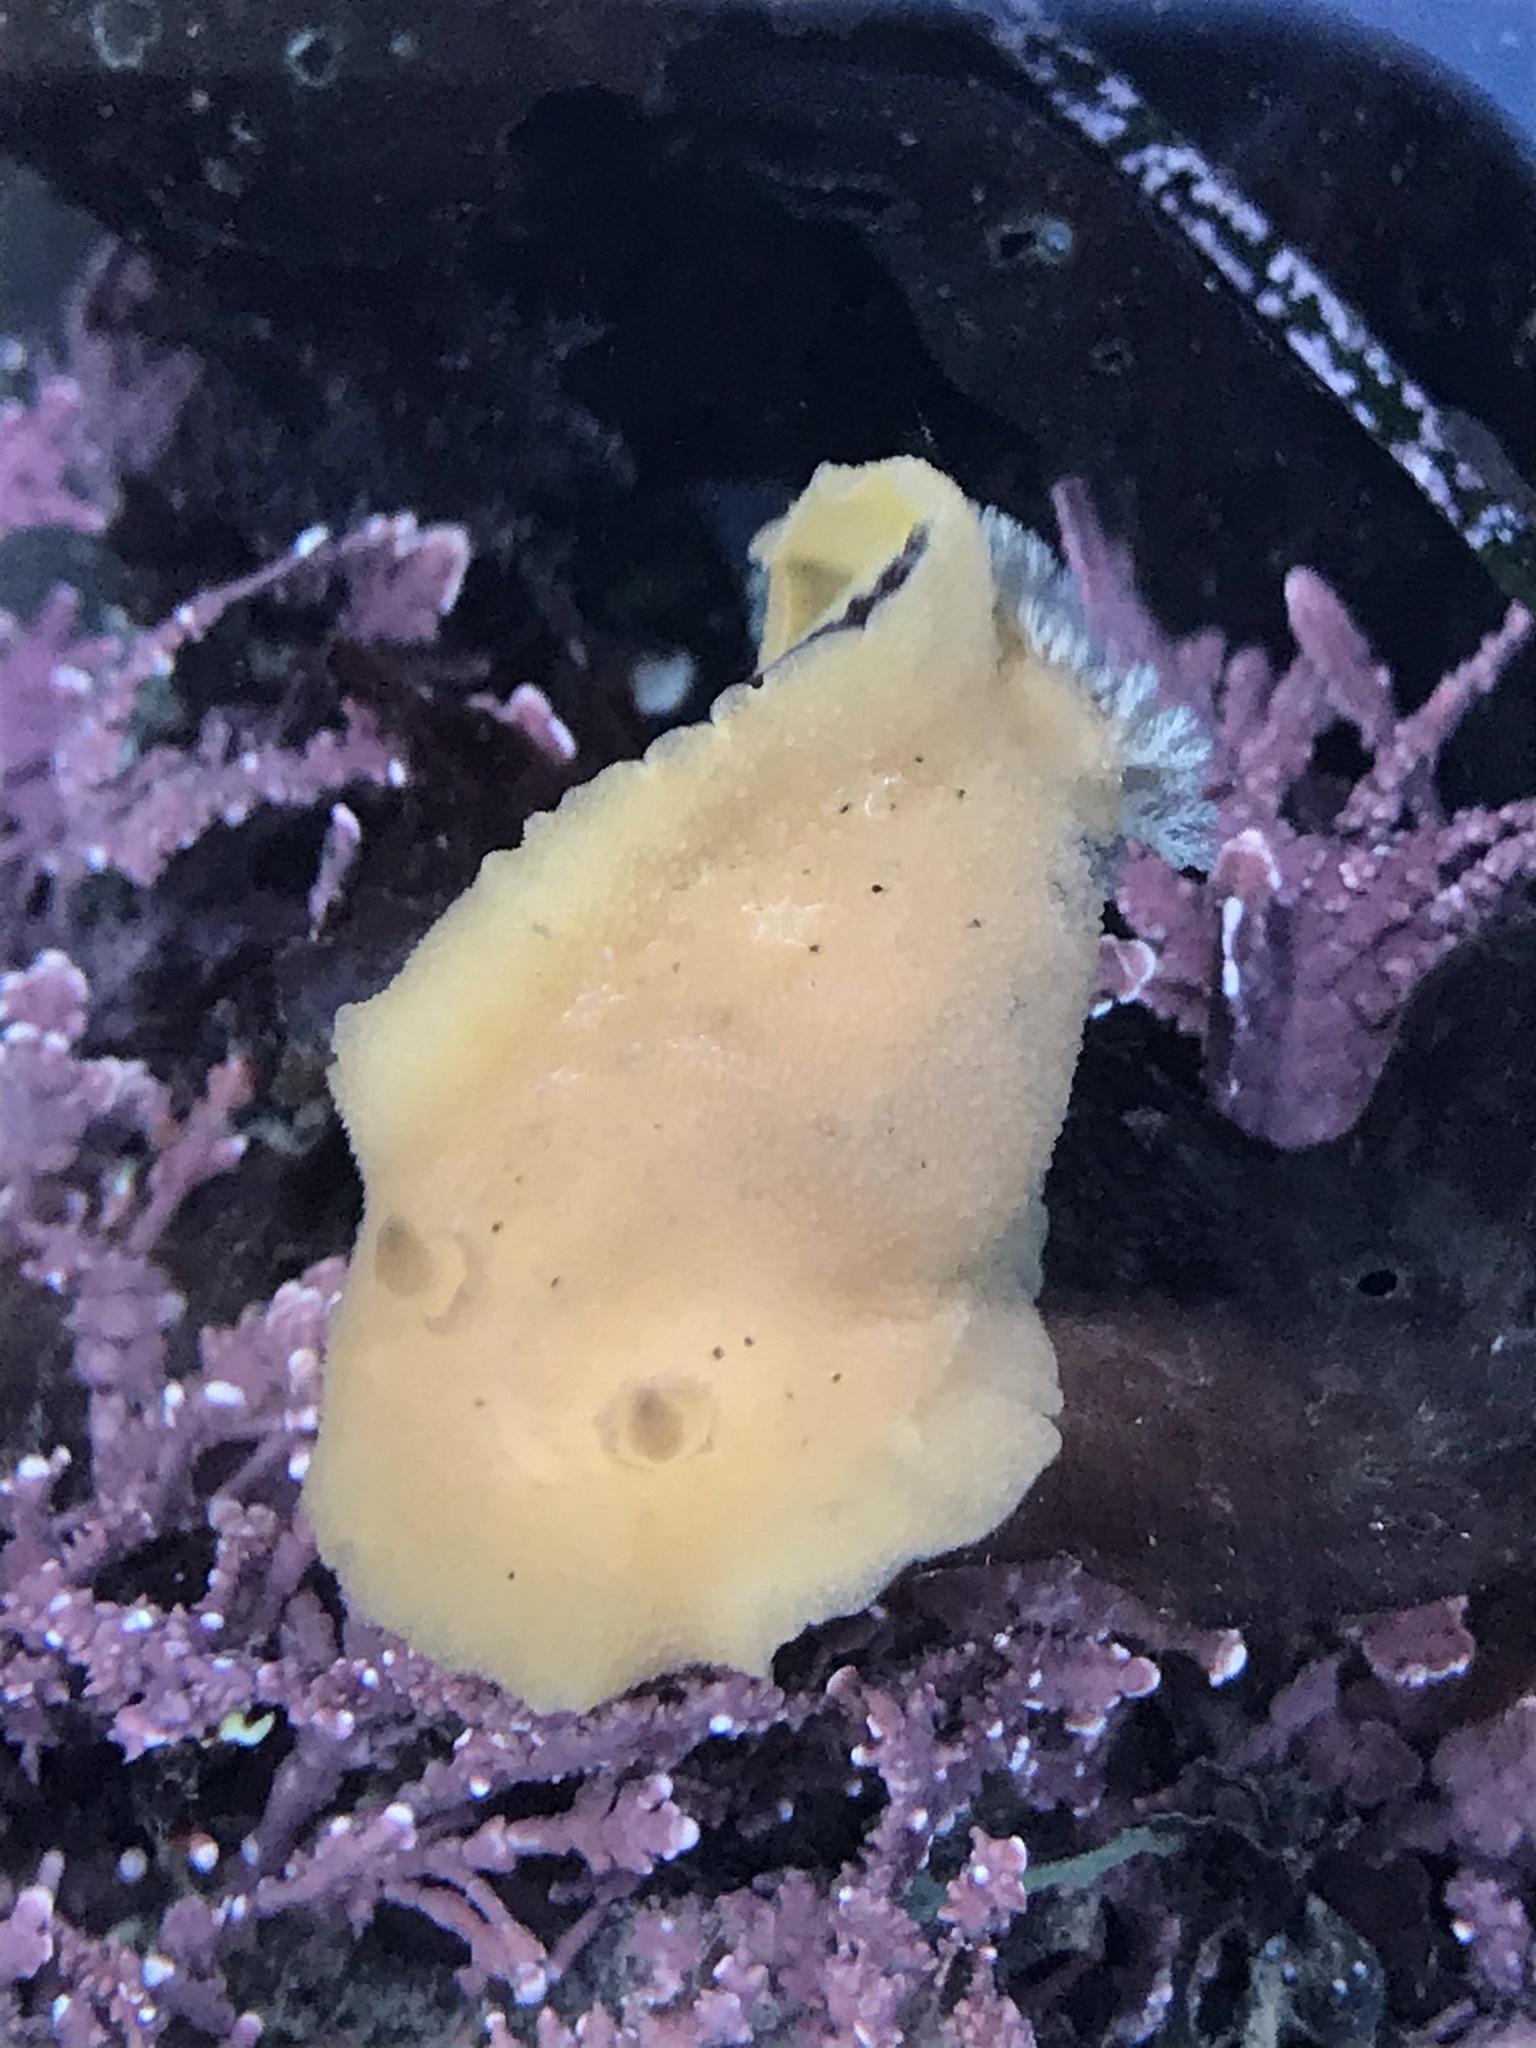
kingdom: Animalia
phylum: Mollusca
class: Gastropoda
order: Nudibranchia
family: Discodorididae
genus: Geitodoris
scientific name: Geitodoris heathi
